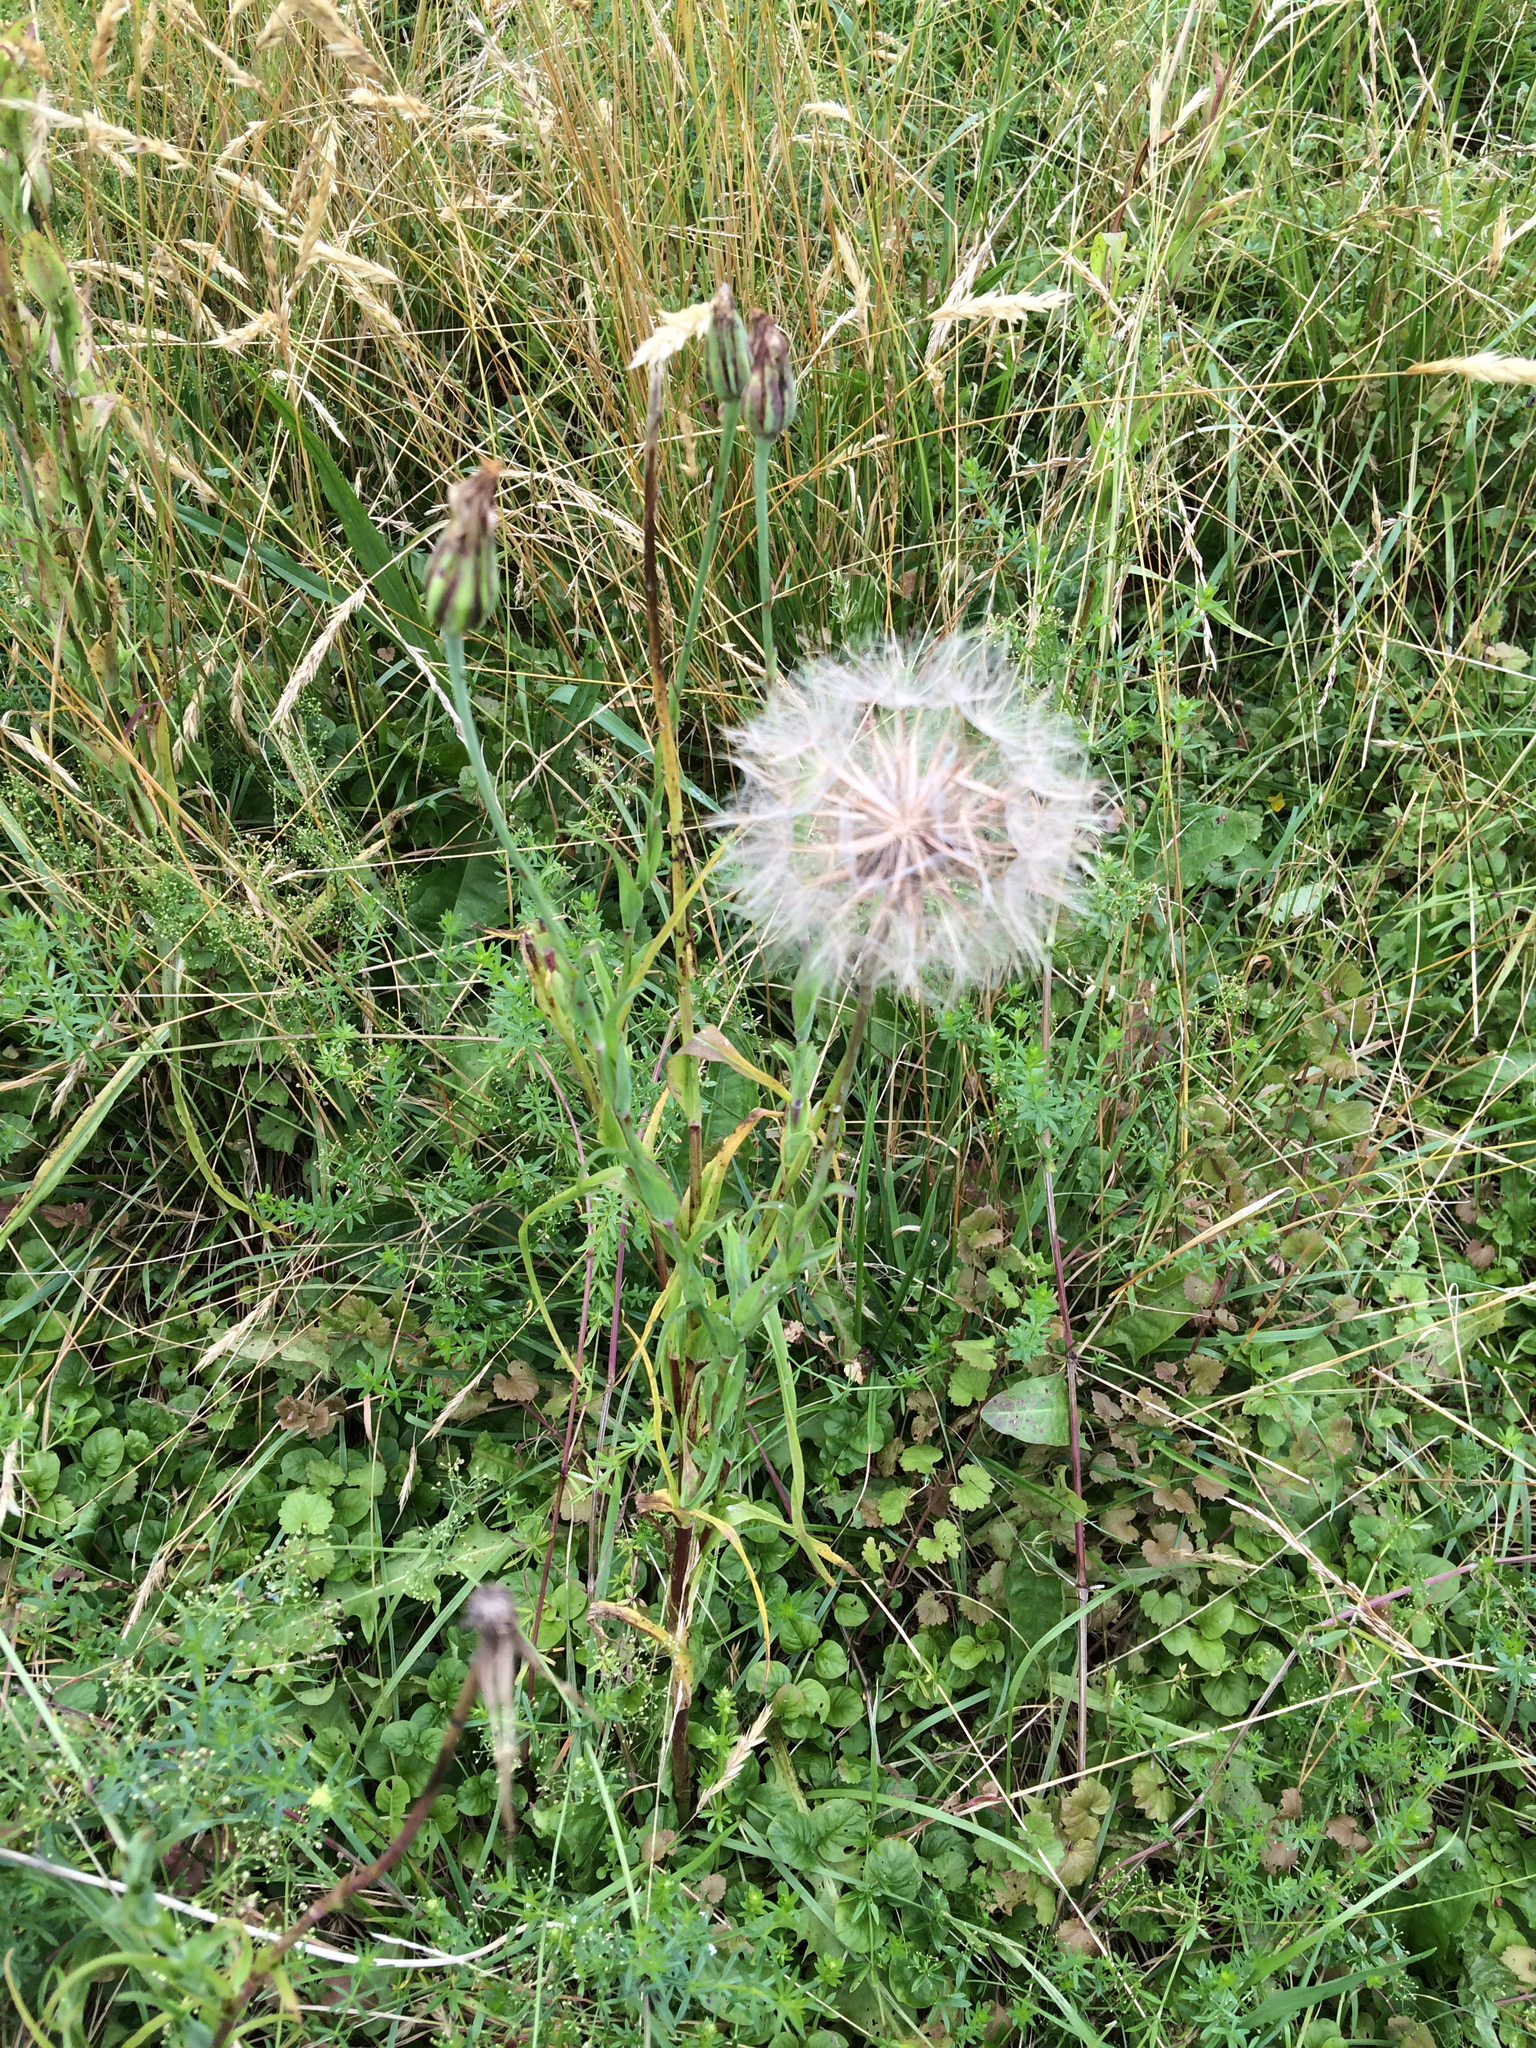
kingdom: Plantae
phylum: Tracheophyta
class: Magnoliopsida
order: Asterales
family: Asteraceae
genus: Tragopogon
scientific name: Tragopogon pratensis
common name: Goat's-beard
